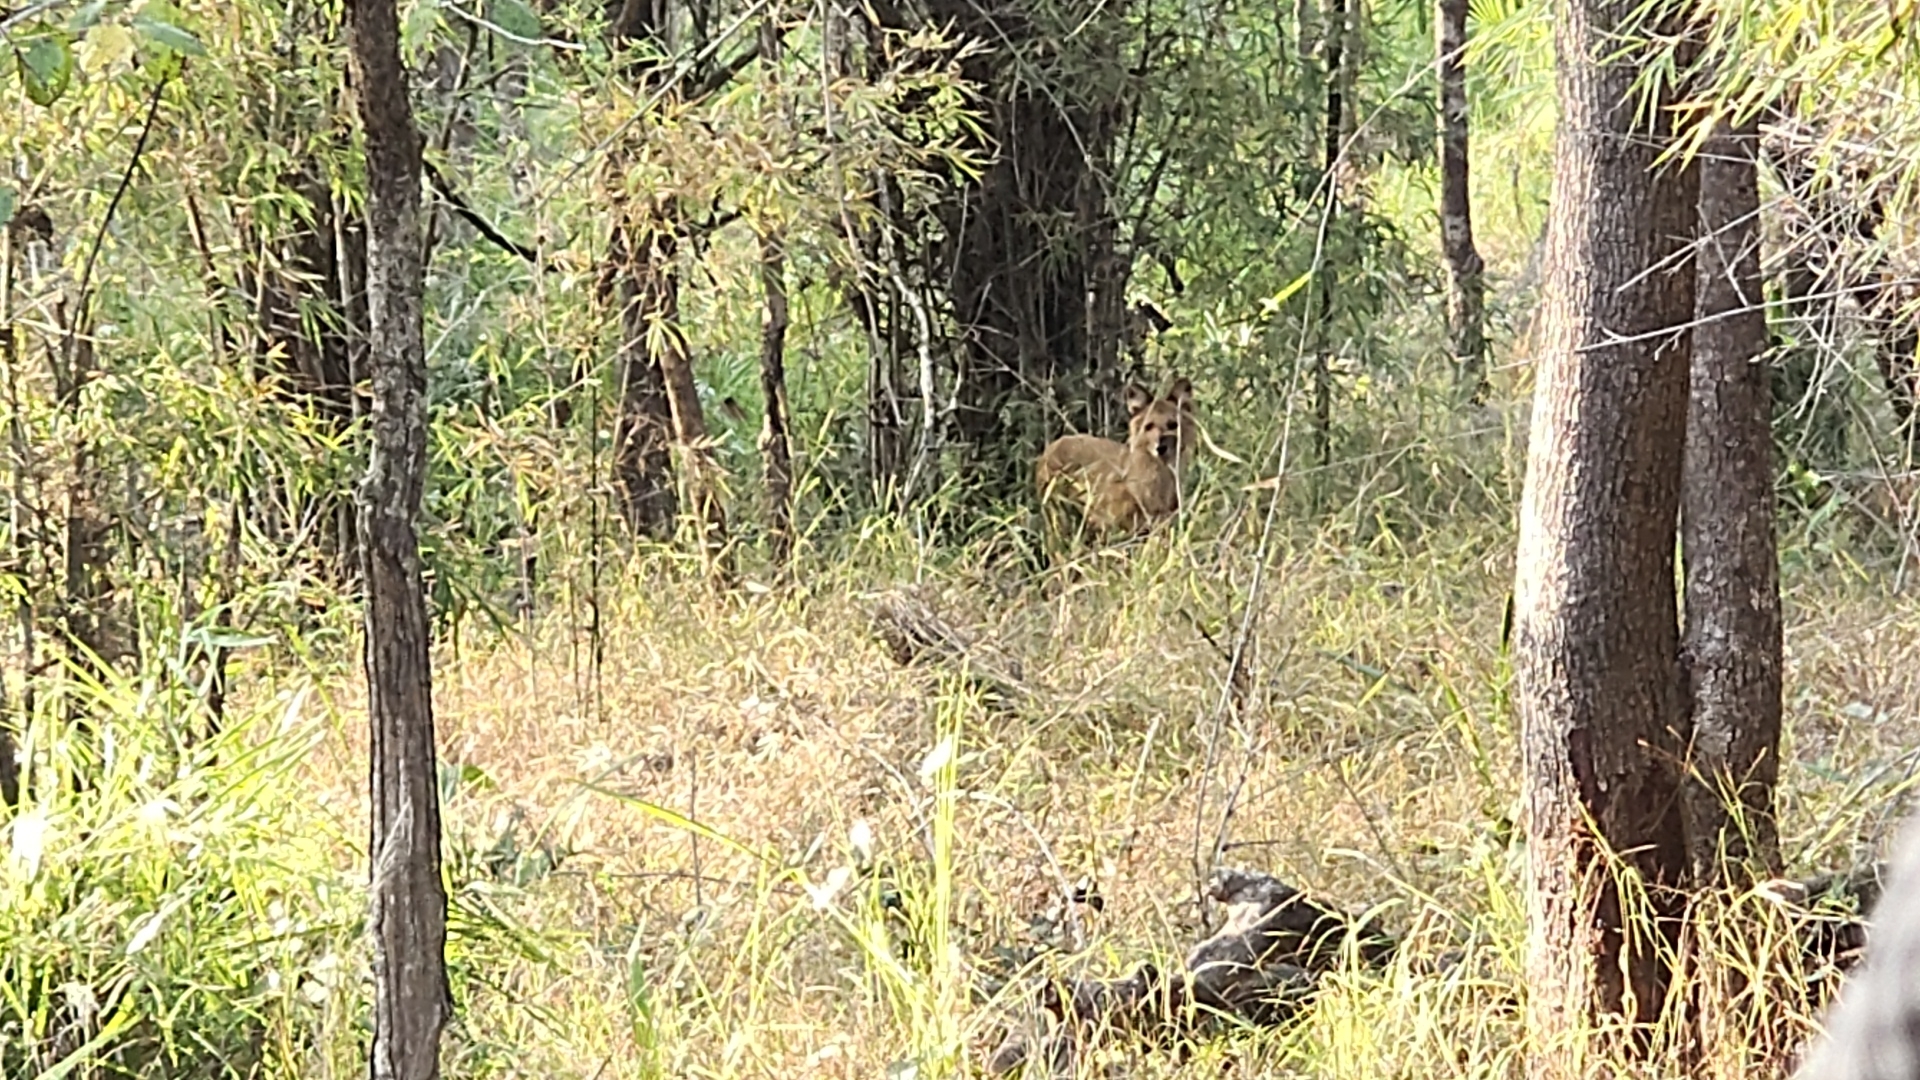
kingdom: Animalia
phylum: Chordata
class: Mammalia
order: Carnivora
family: Canidae
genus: Cuon
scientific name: Cuon alpinus
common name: Dhole
